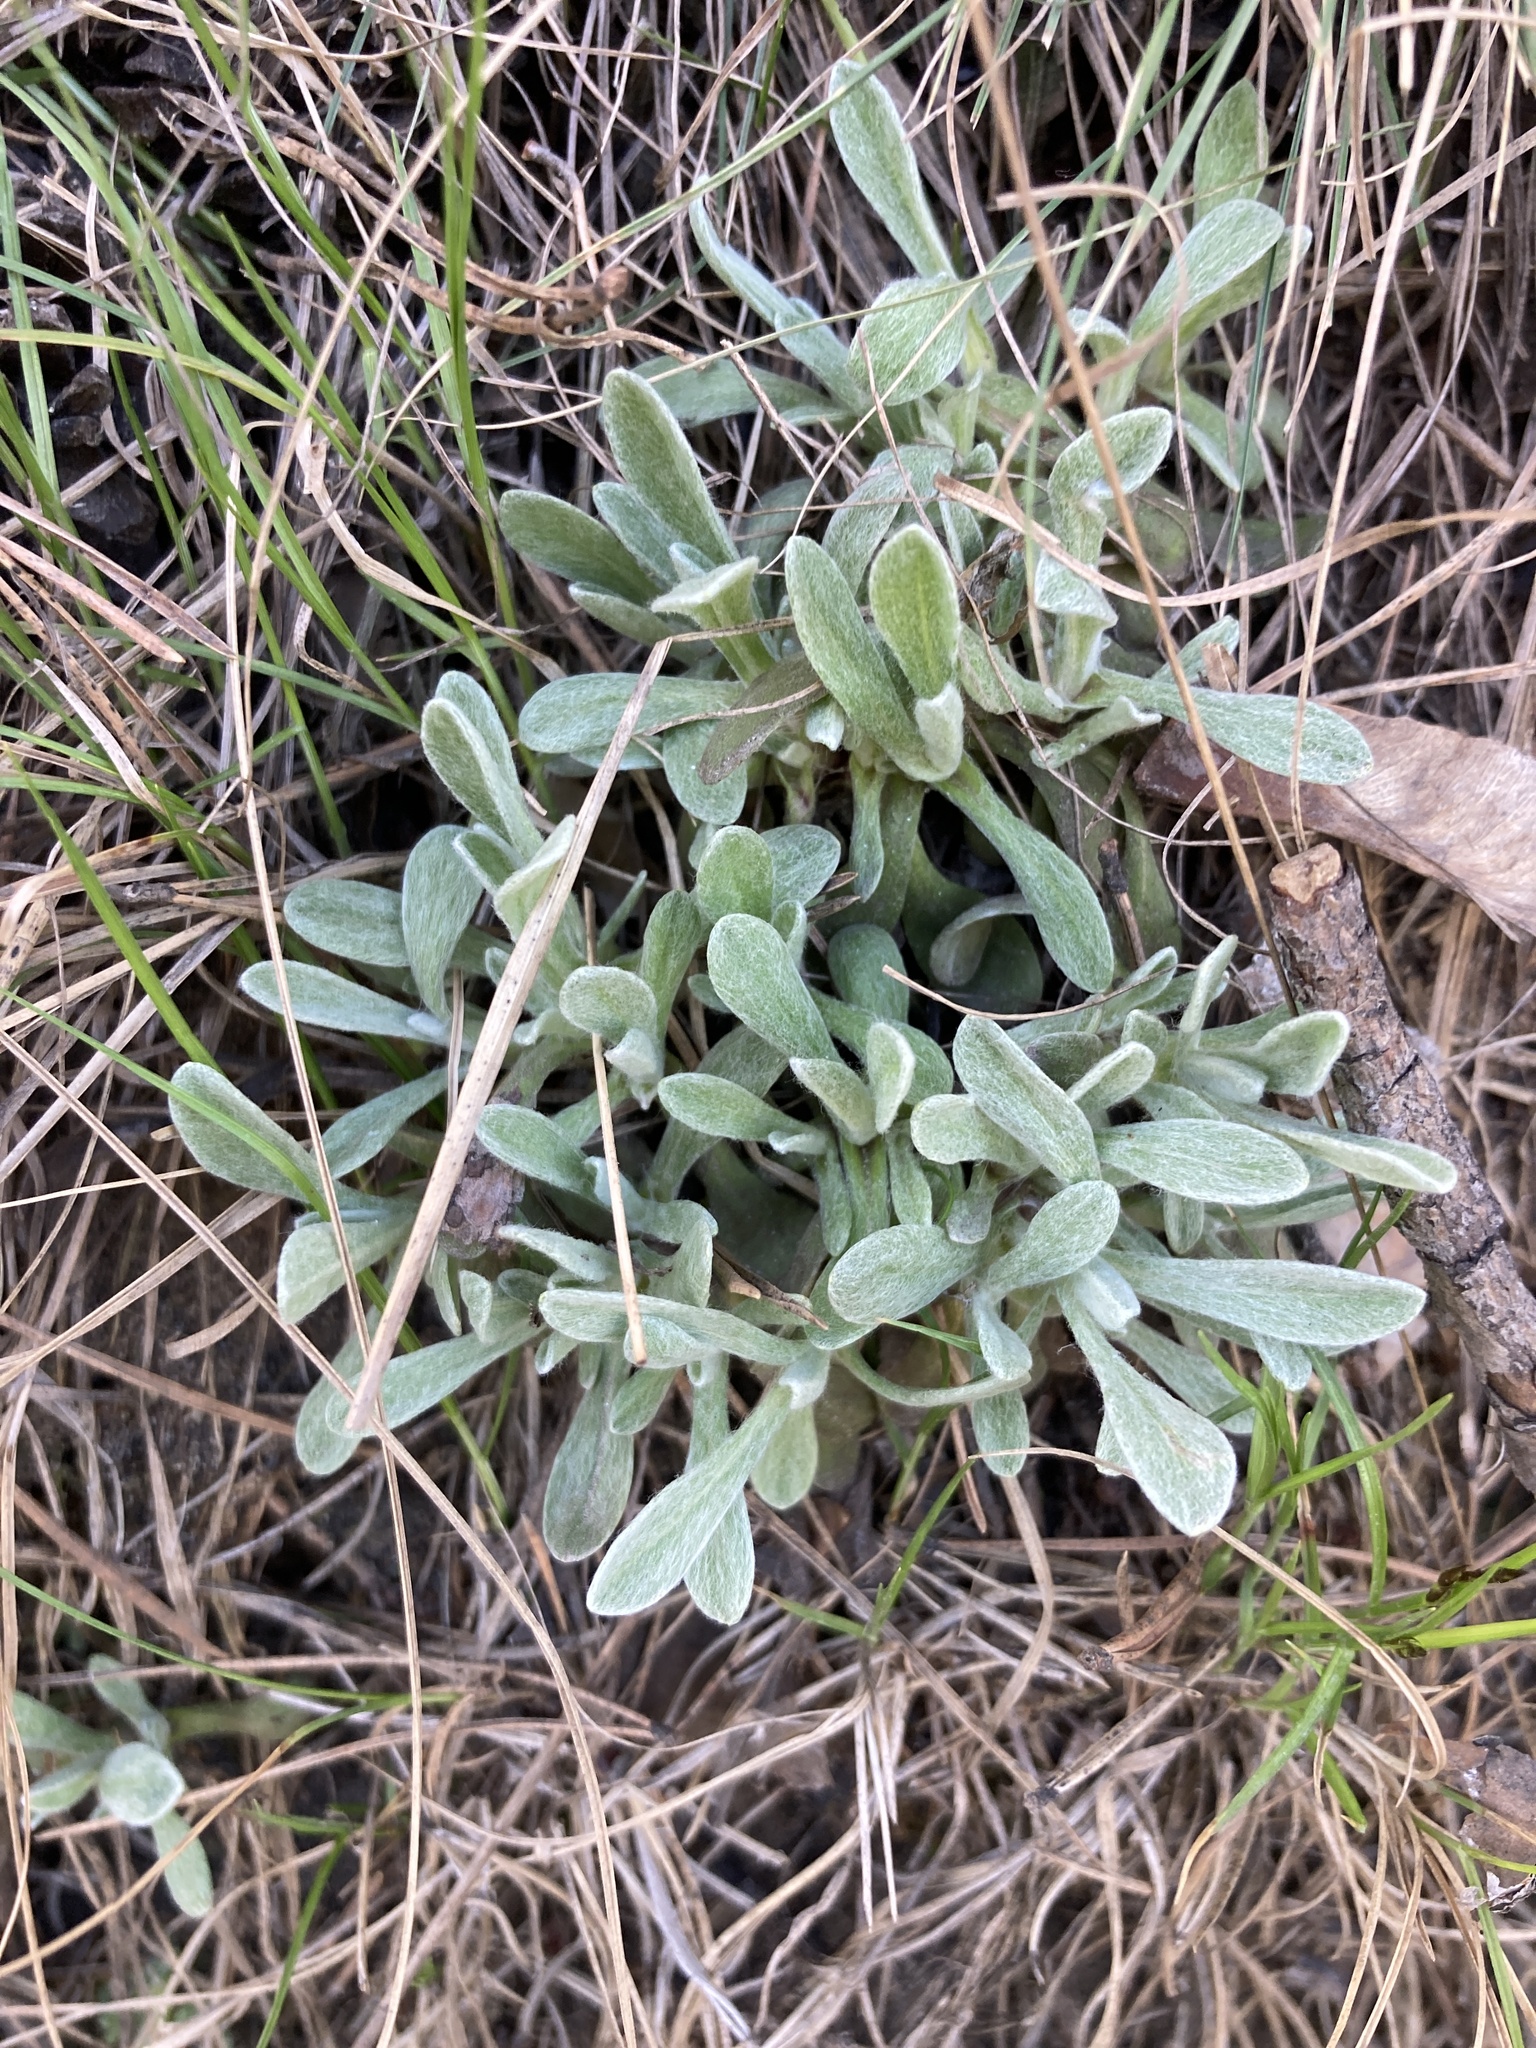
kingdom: Plantae
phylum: Tracheophyta
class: Magnoliopsida
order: Asterales
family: Asteraceae
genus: Helichrysum
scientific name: Helichrysum arenarium
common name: Strawflower
